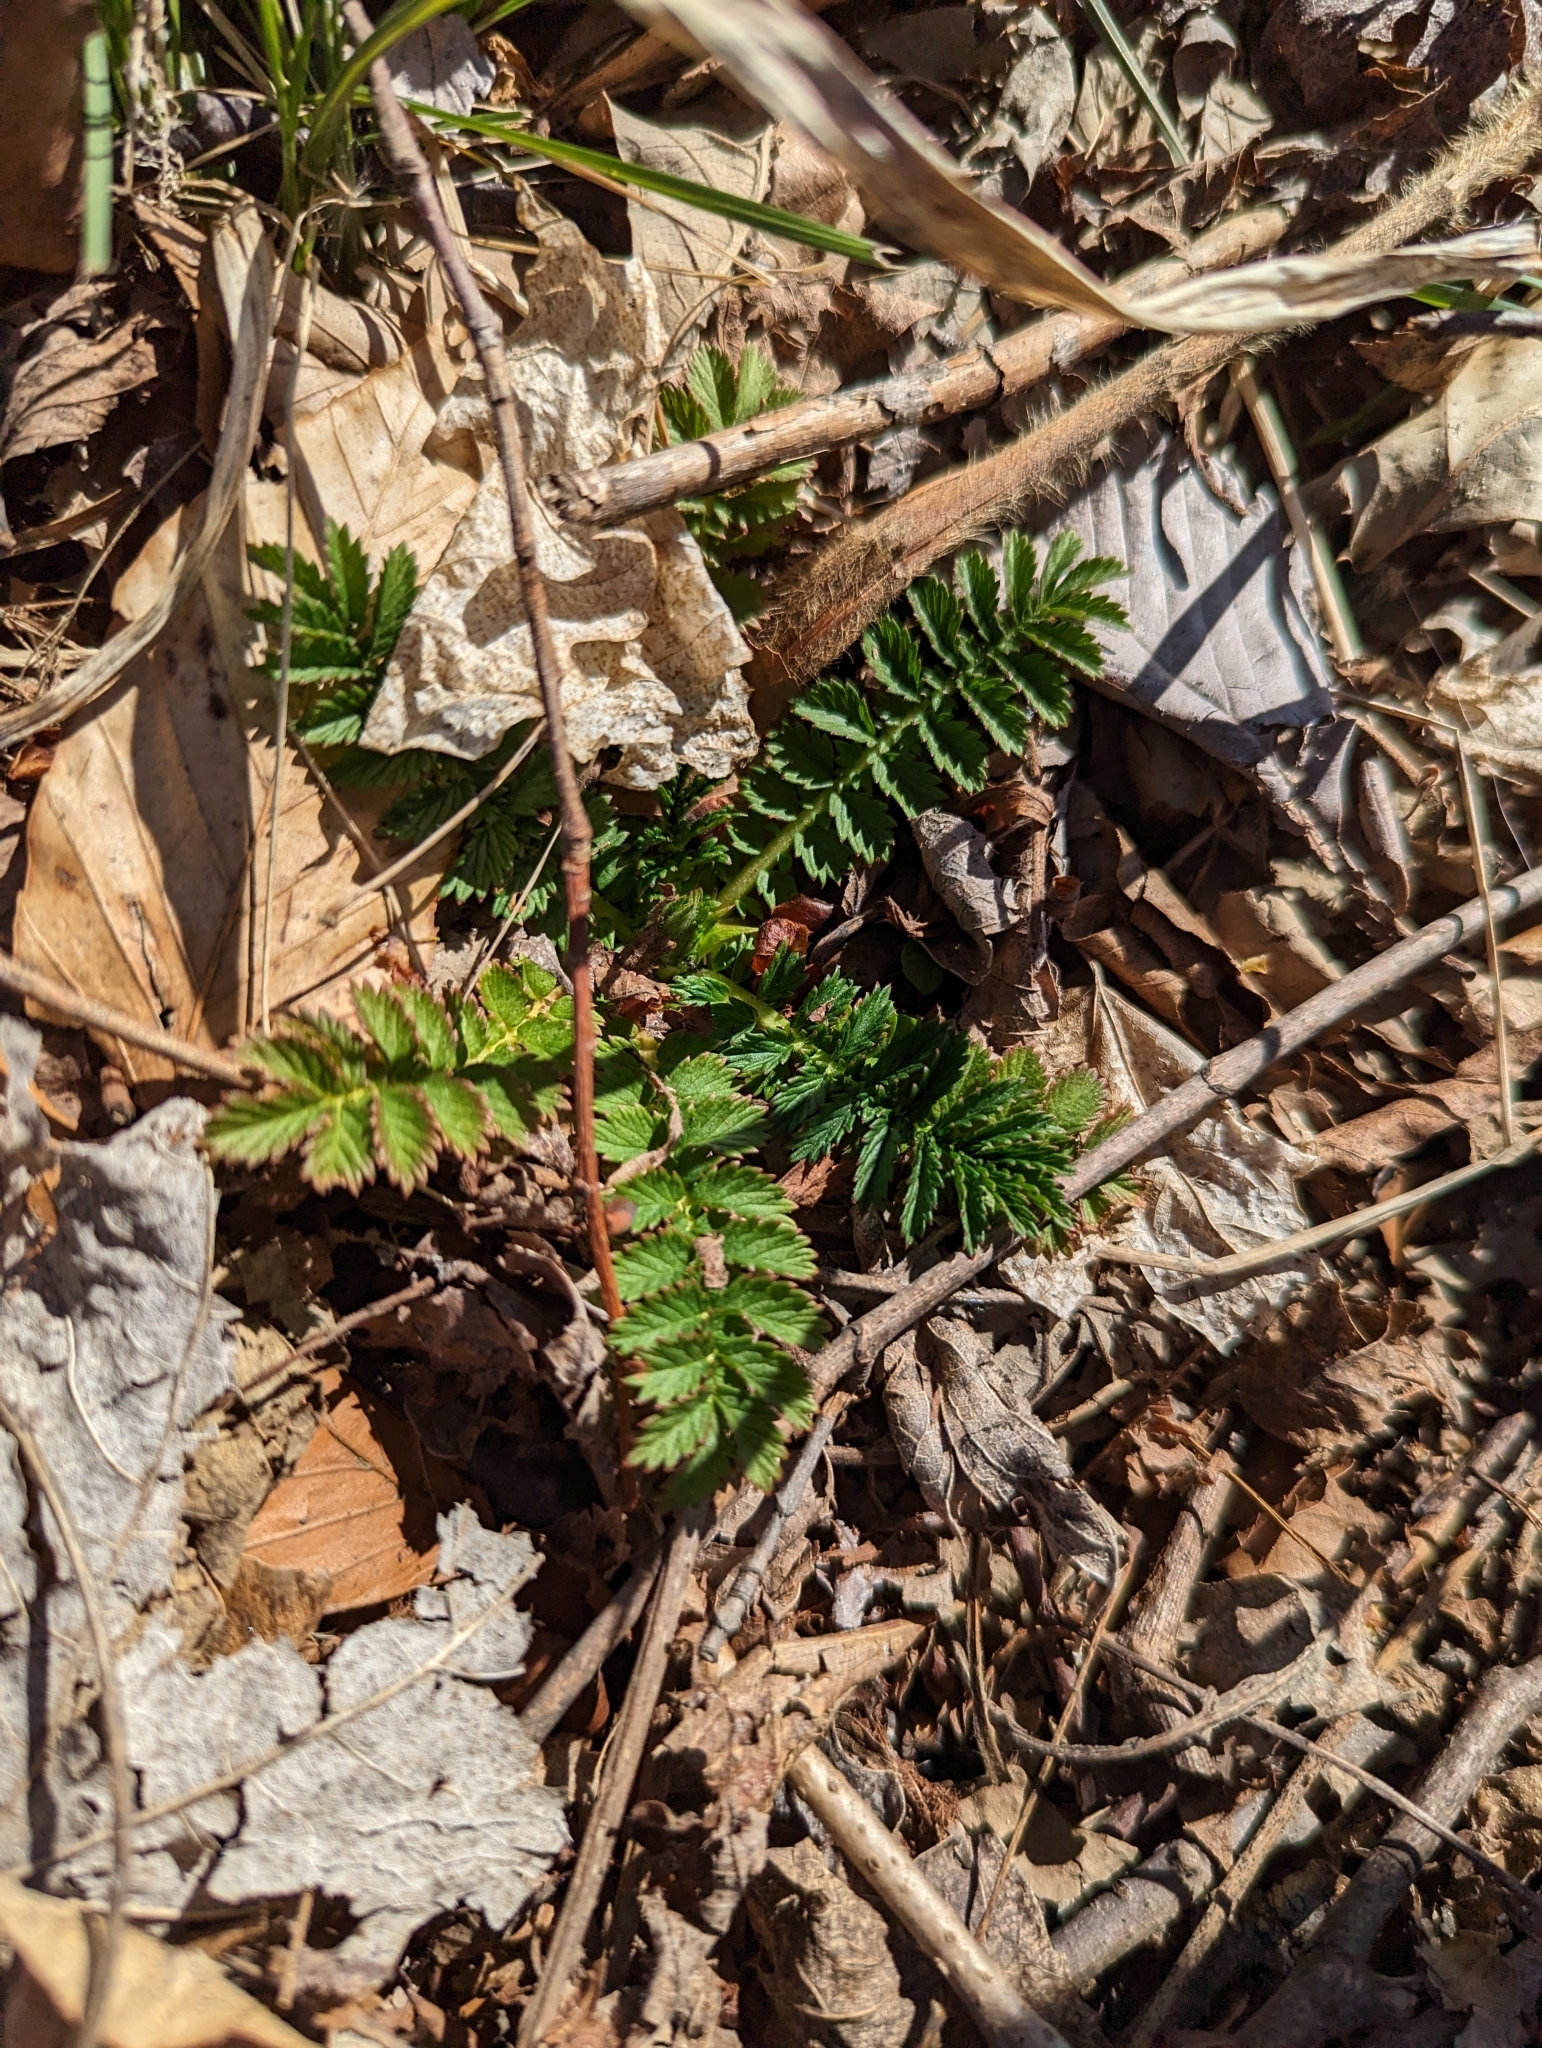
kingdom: Plantae
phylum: Tracheophyta
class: Magnoliopsida
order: Rosales
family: Rosaceae
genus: Agrimonia
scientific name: Agrimonia parviflora
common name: Harvest-lice
